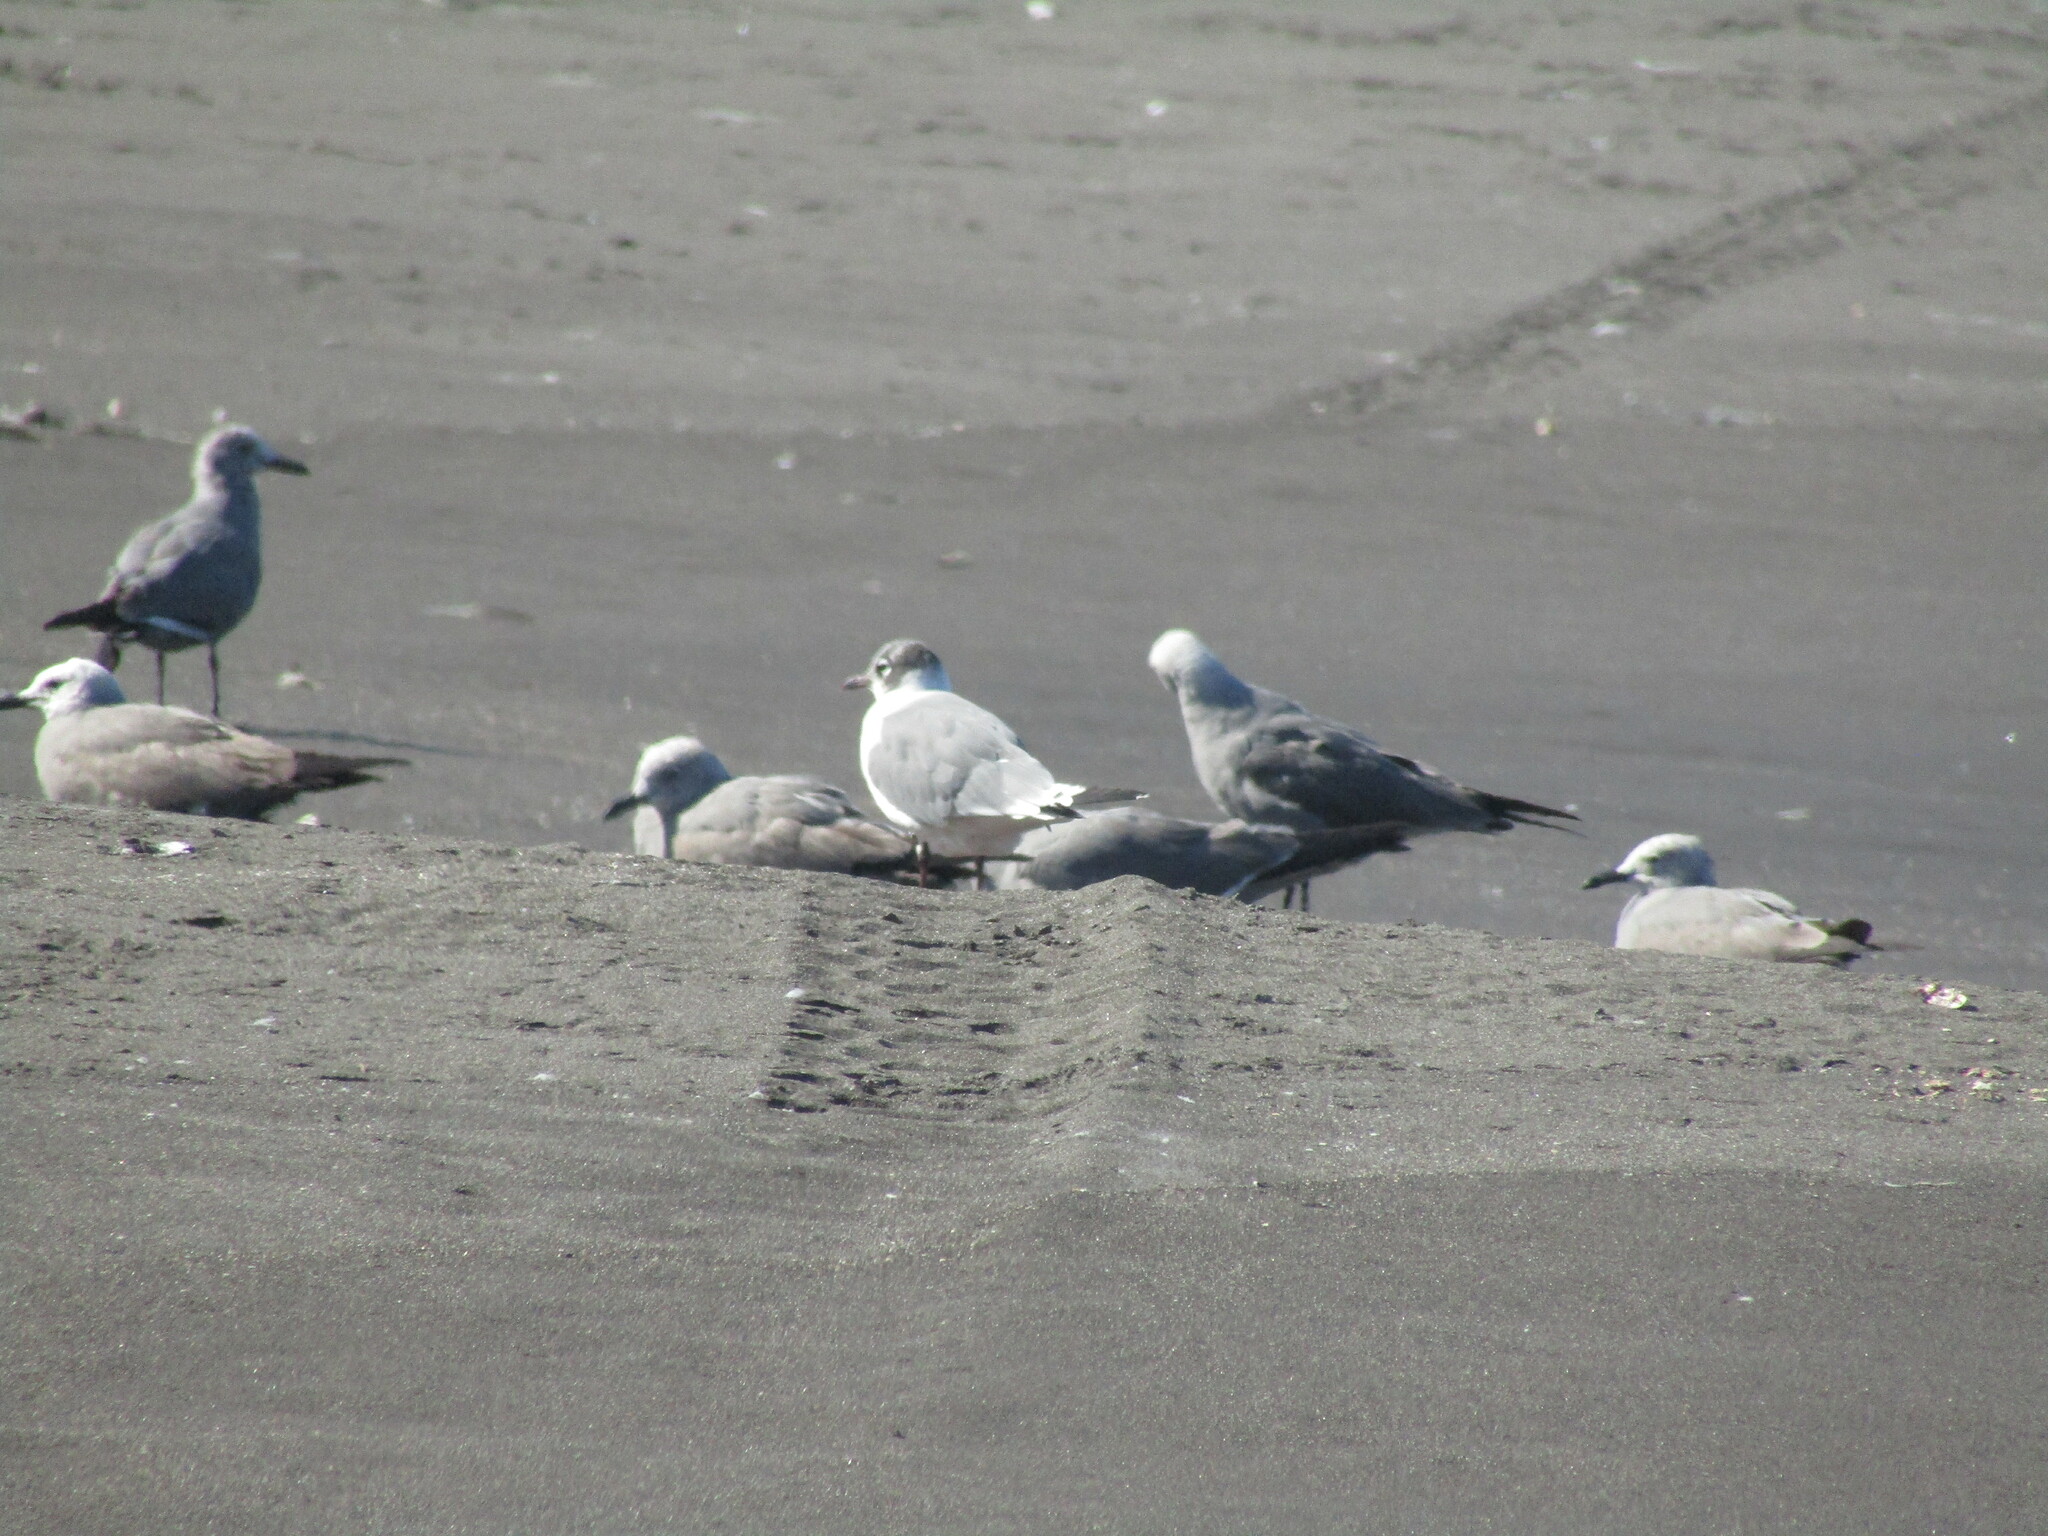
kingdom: Animalia
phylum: Chordata
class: Aves
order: Charadriiformes
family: Laridae
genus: Leucophaeus
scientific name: Leucophaeus pipixcan
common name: Franklin's gull
